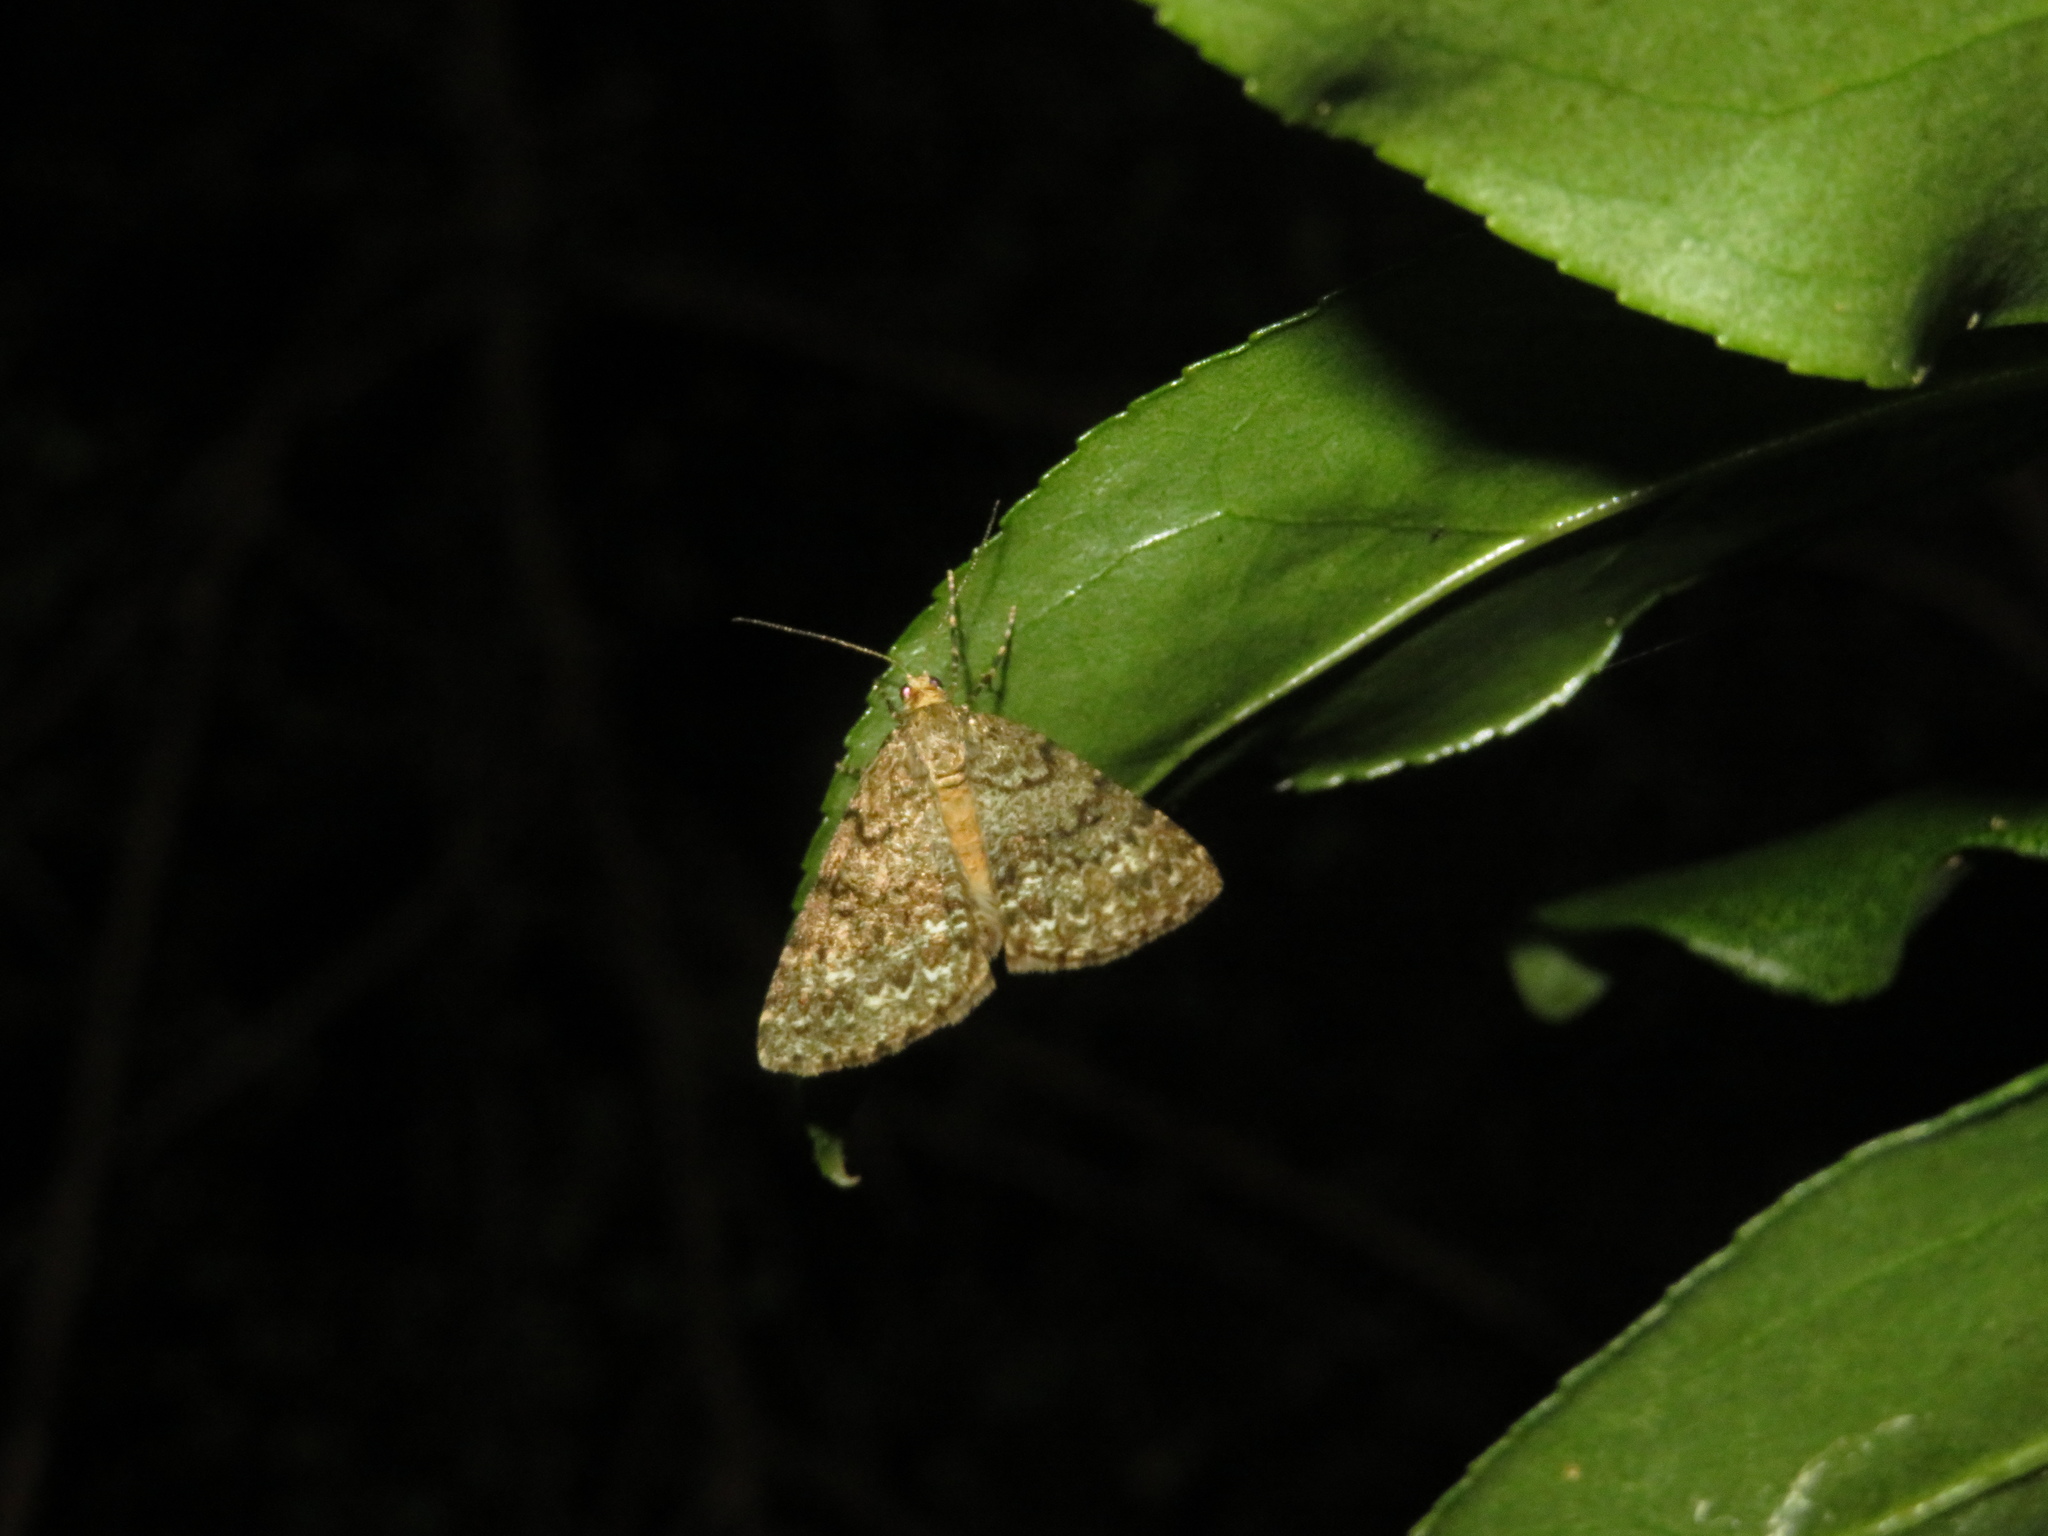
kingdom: Animalia
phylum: Arthropoda
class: Insecta
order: Lepidoptera
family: Geometridae
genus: Pseudocoremia
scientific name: Pseudocoremia indistincta
